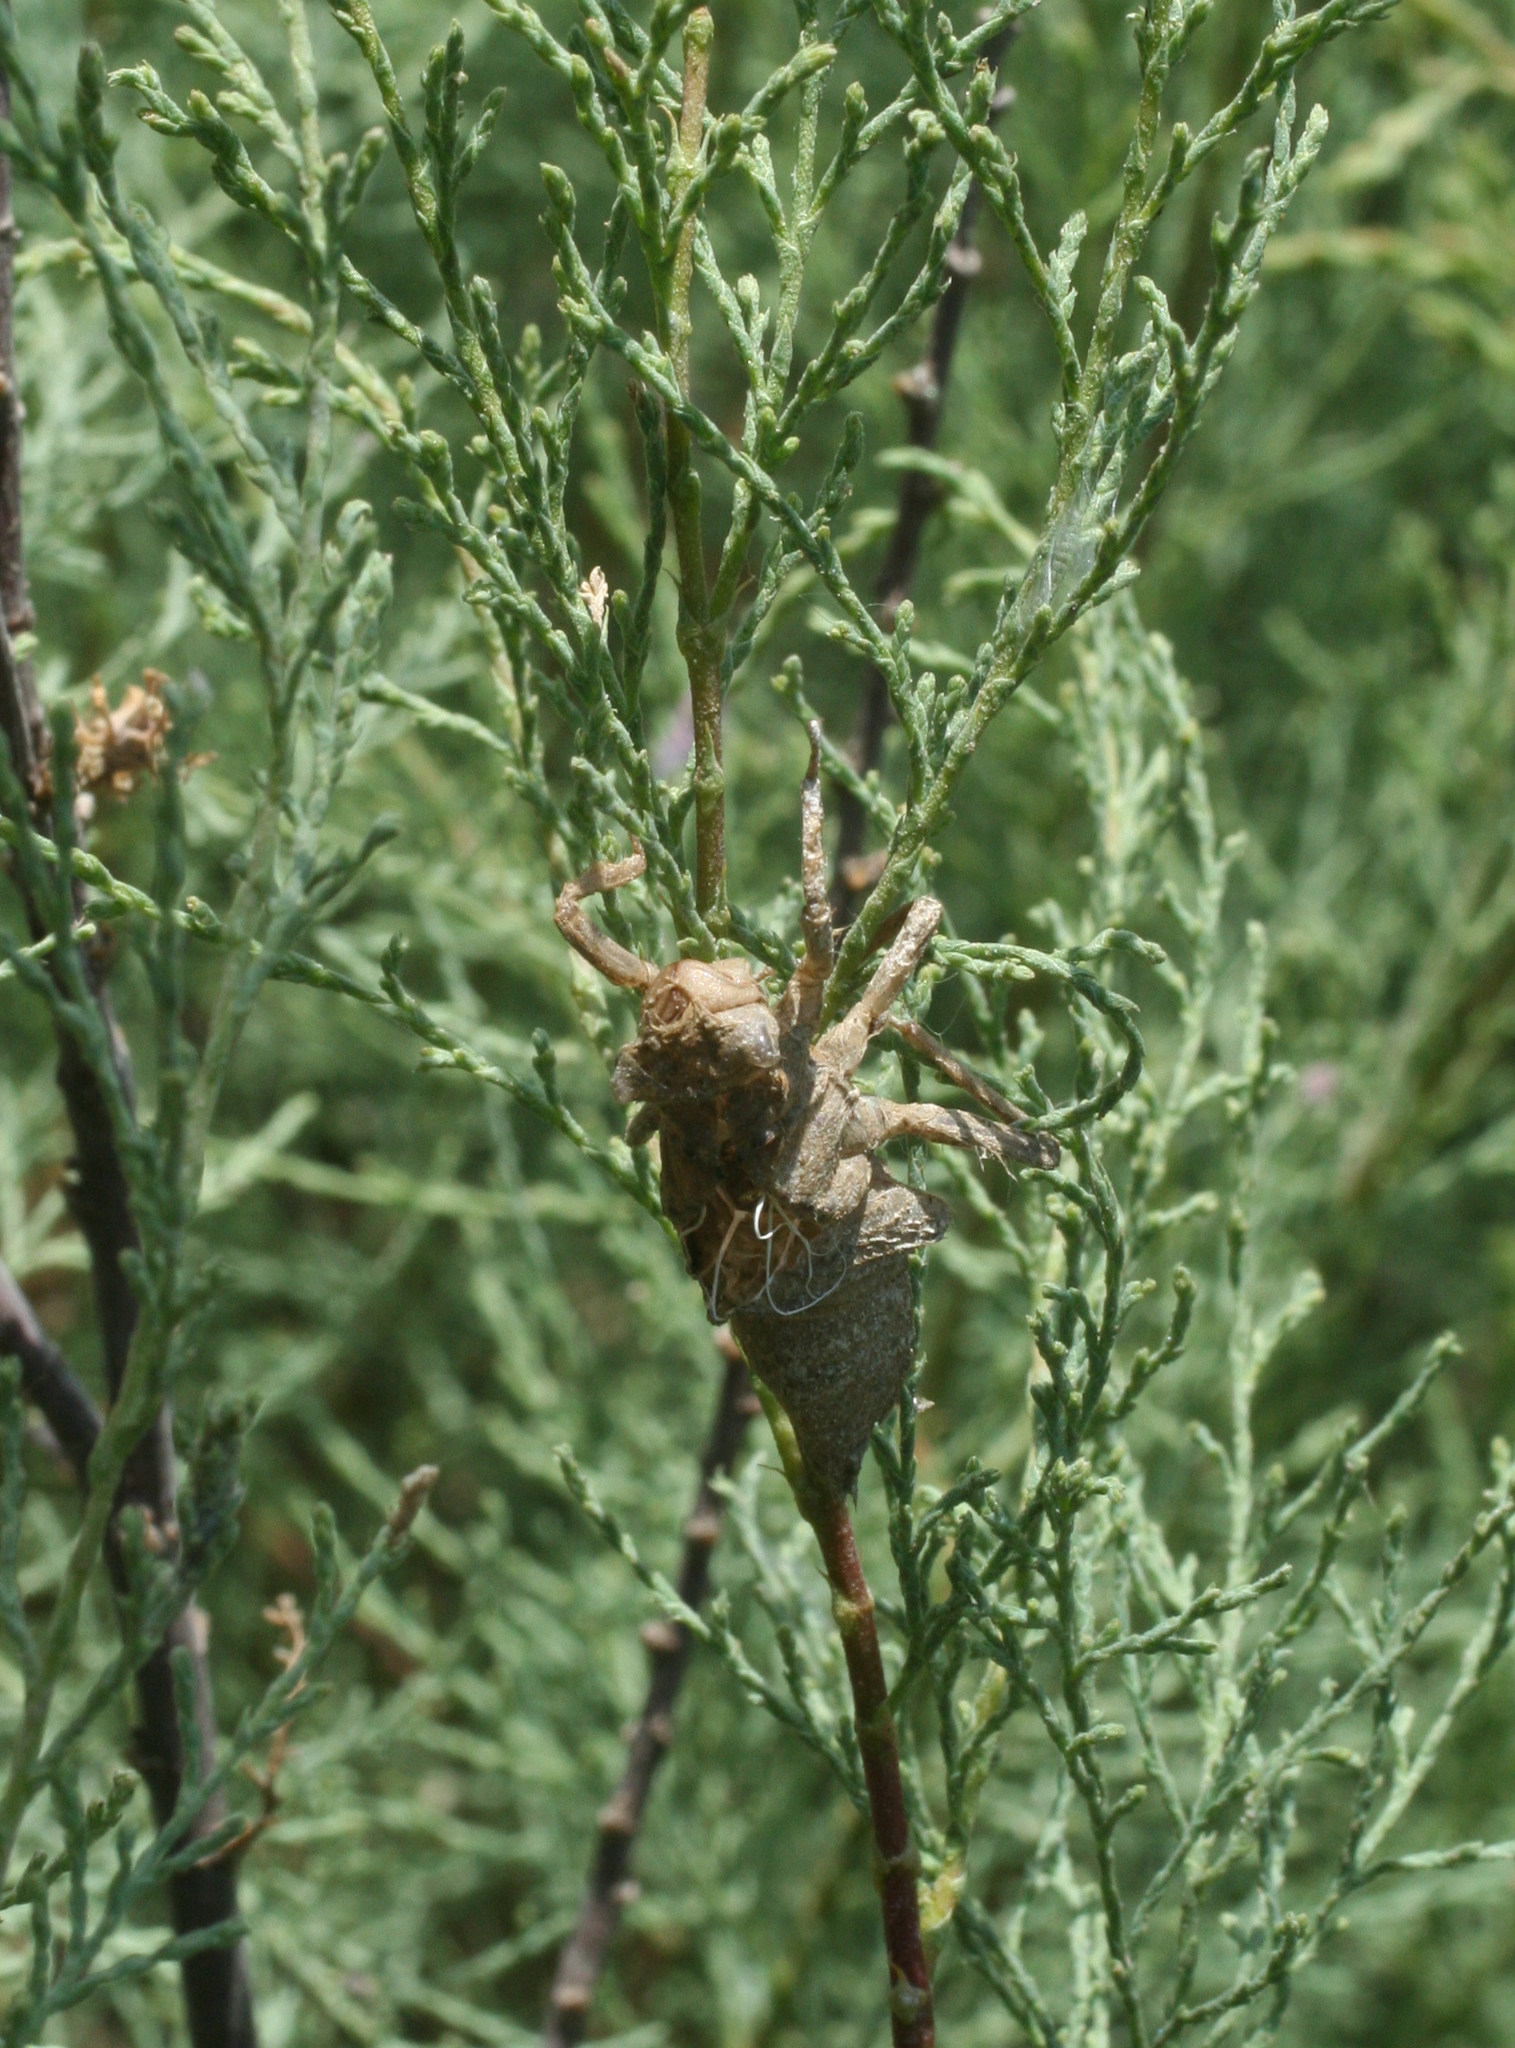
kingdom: Animalia
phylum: Arthropoda
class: Insecta
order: Odonata
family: Gomphidae
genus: Lindenia
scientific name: Lindenia tetraphylla
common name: Bladetail
